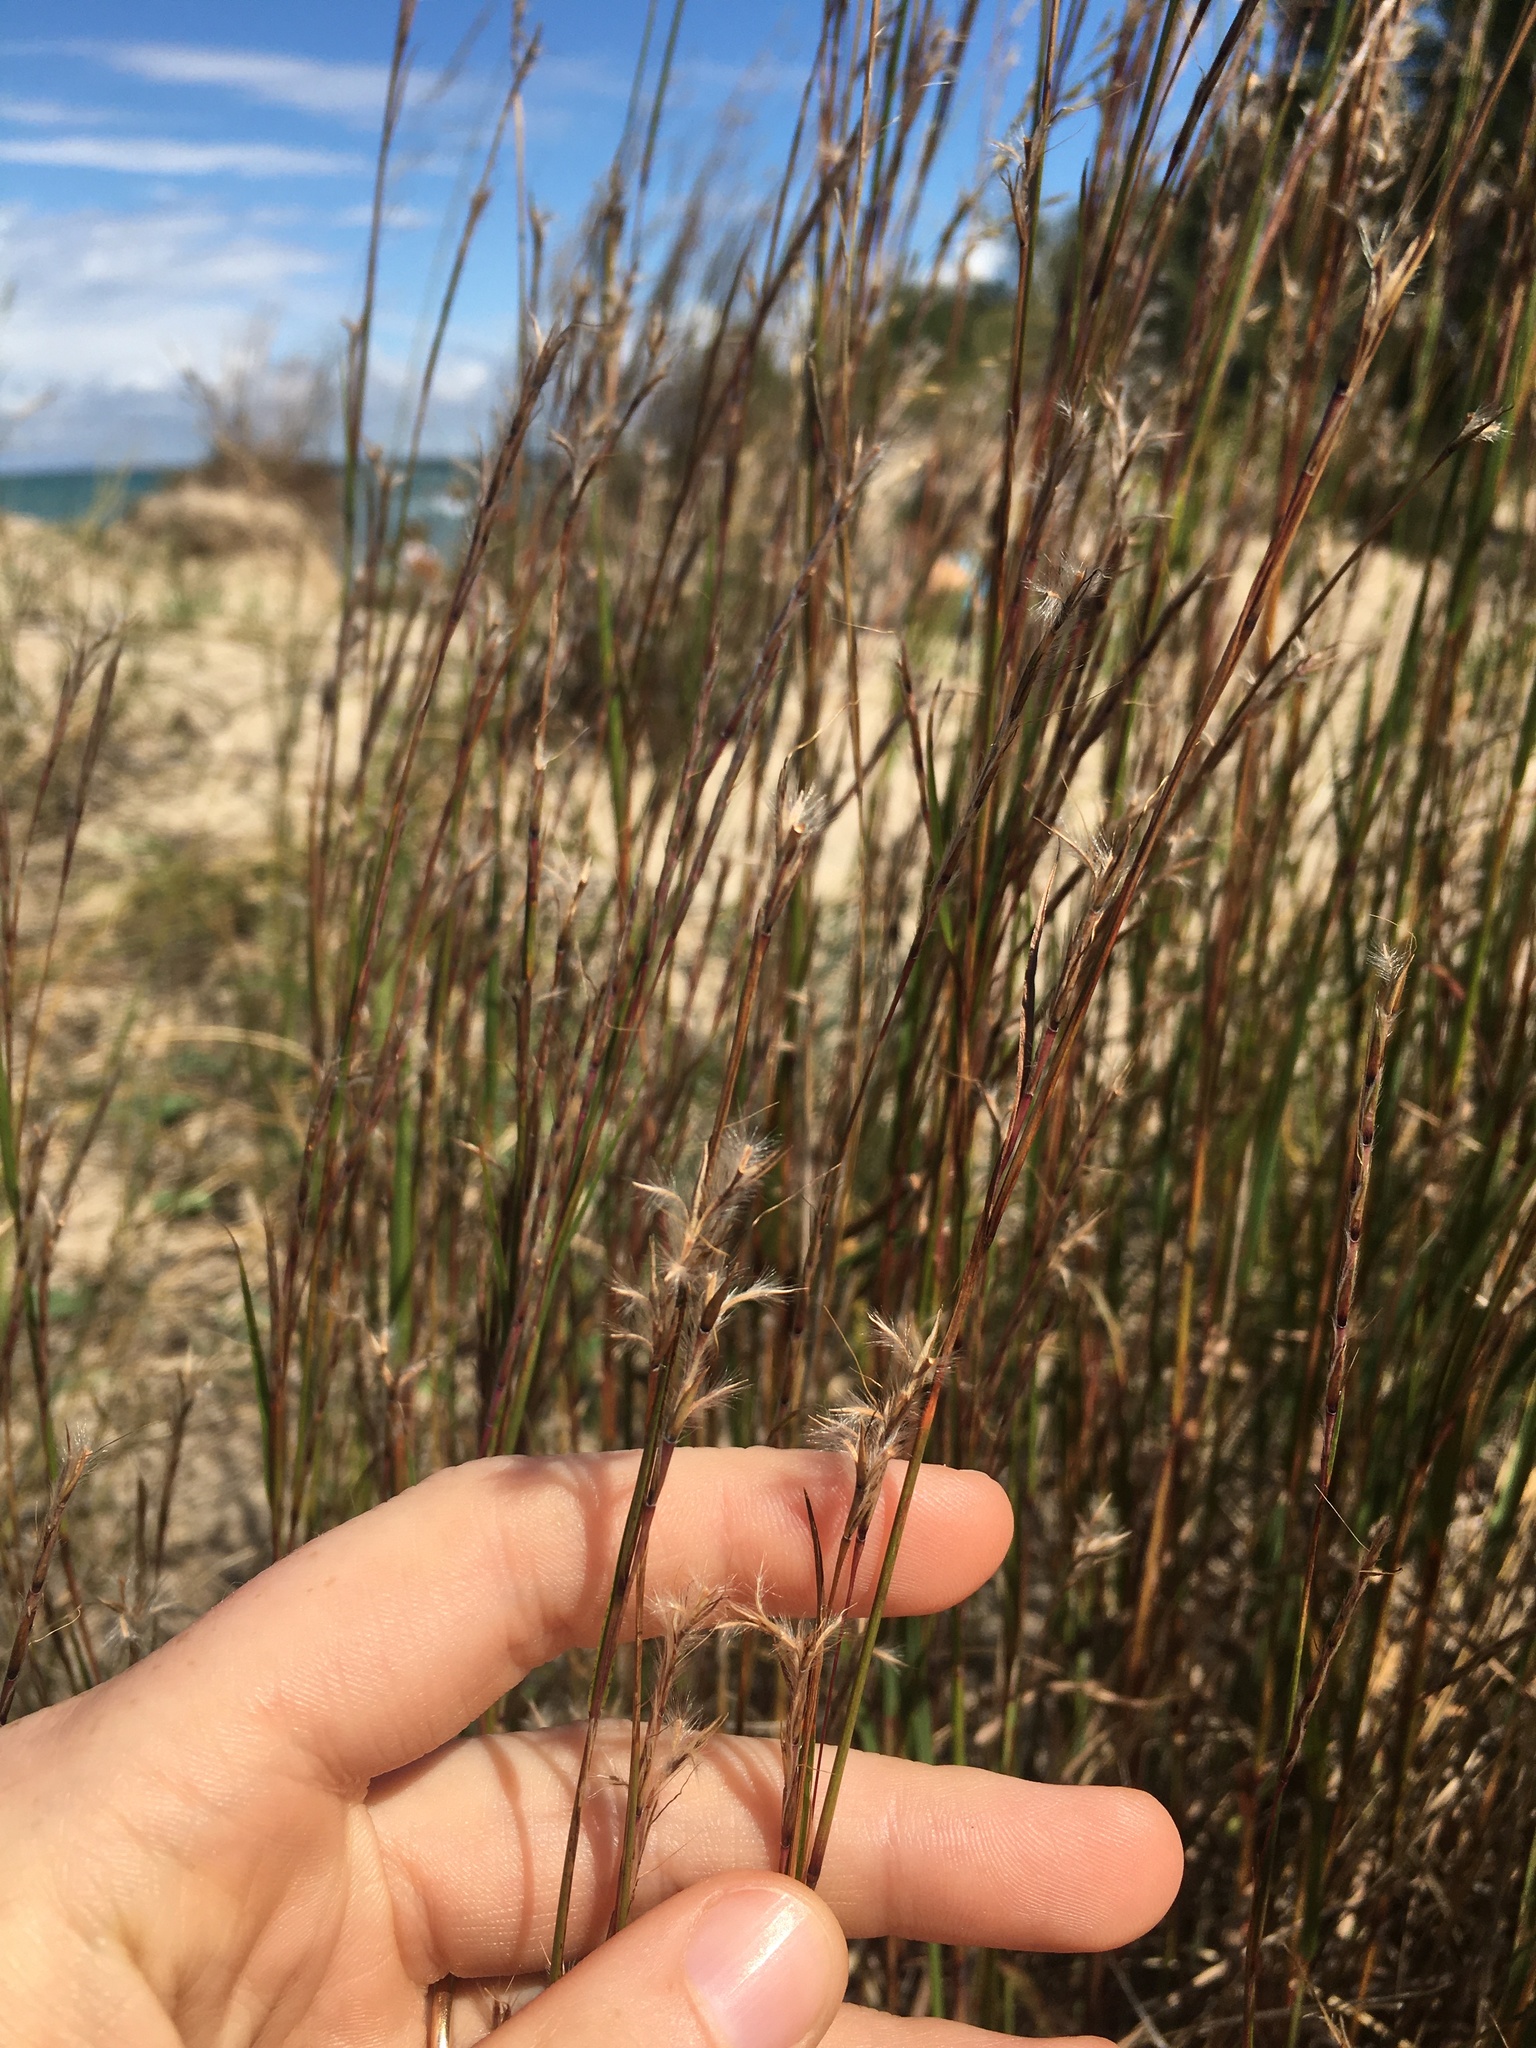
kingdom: Plantae
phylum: Tracheophyta
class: Liliopsida
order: Poales
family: Poaceae
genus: Schizachyrium
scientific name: Schizachyrium scoparium
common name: Little bluestem
